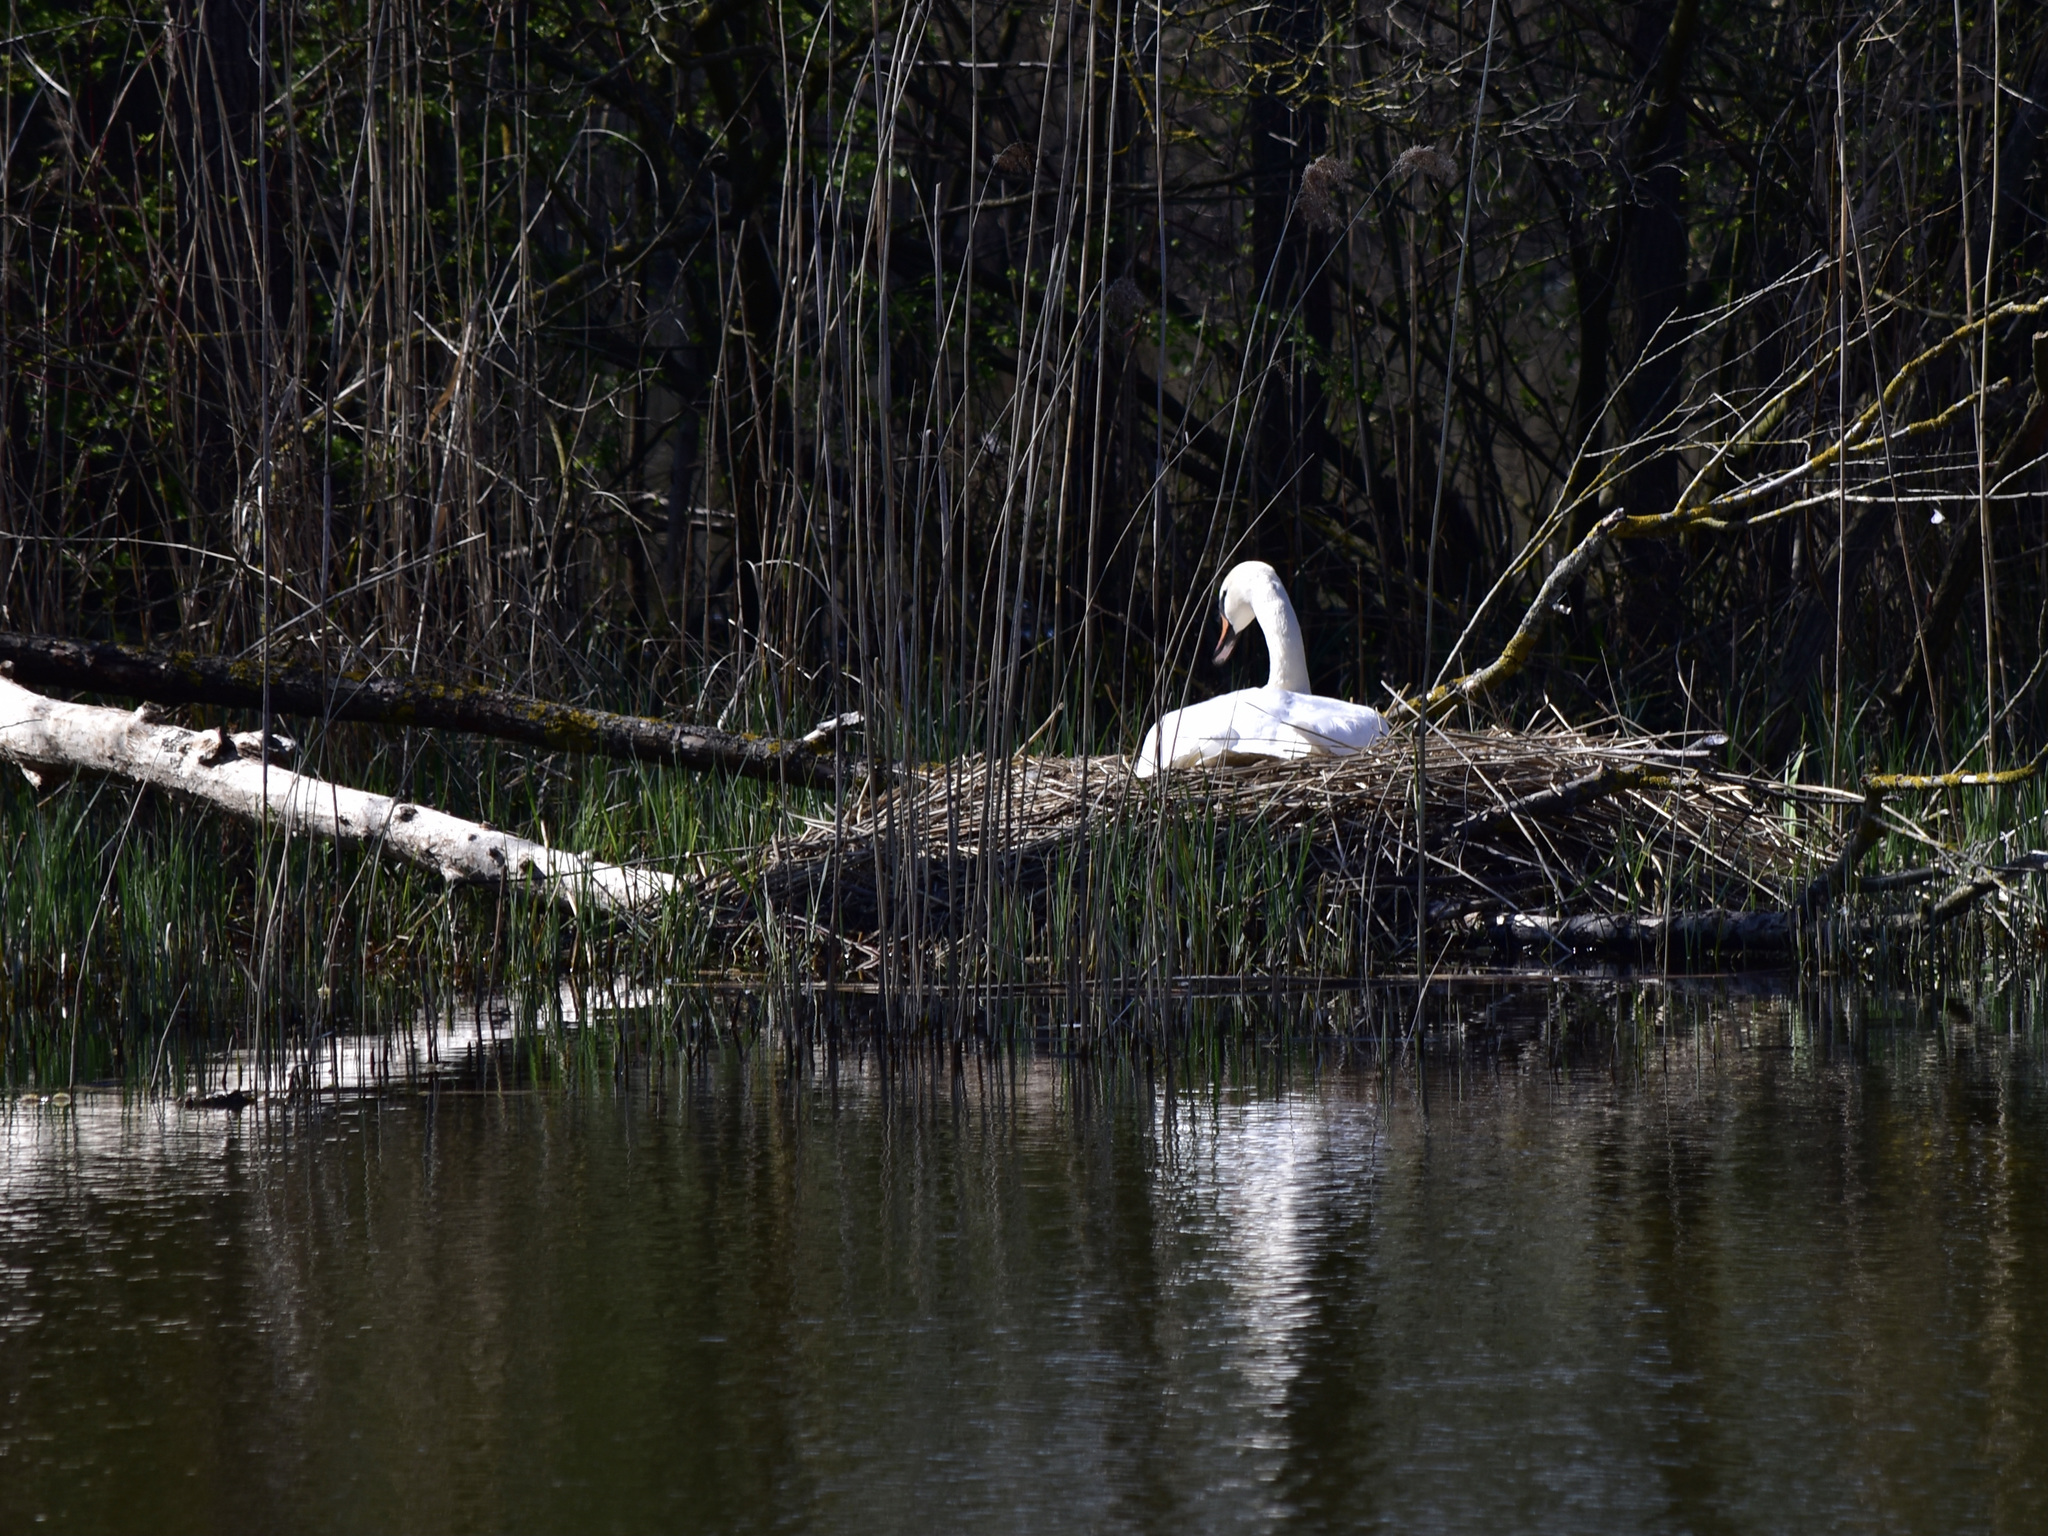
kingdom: Animalia
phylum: Chordata
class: Aves
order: Anseriformes
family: Anatidae
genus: Cygnus
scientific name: Cygnus olor
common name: Mute swan
